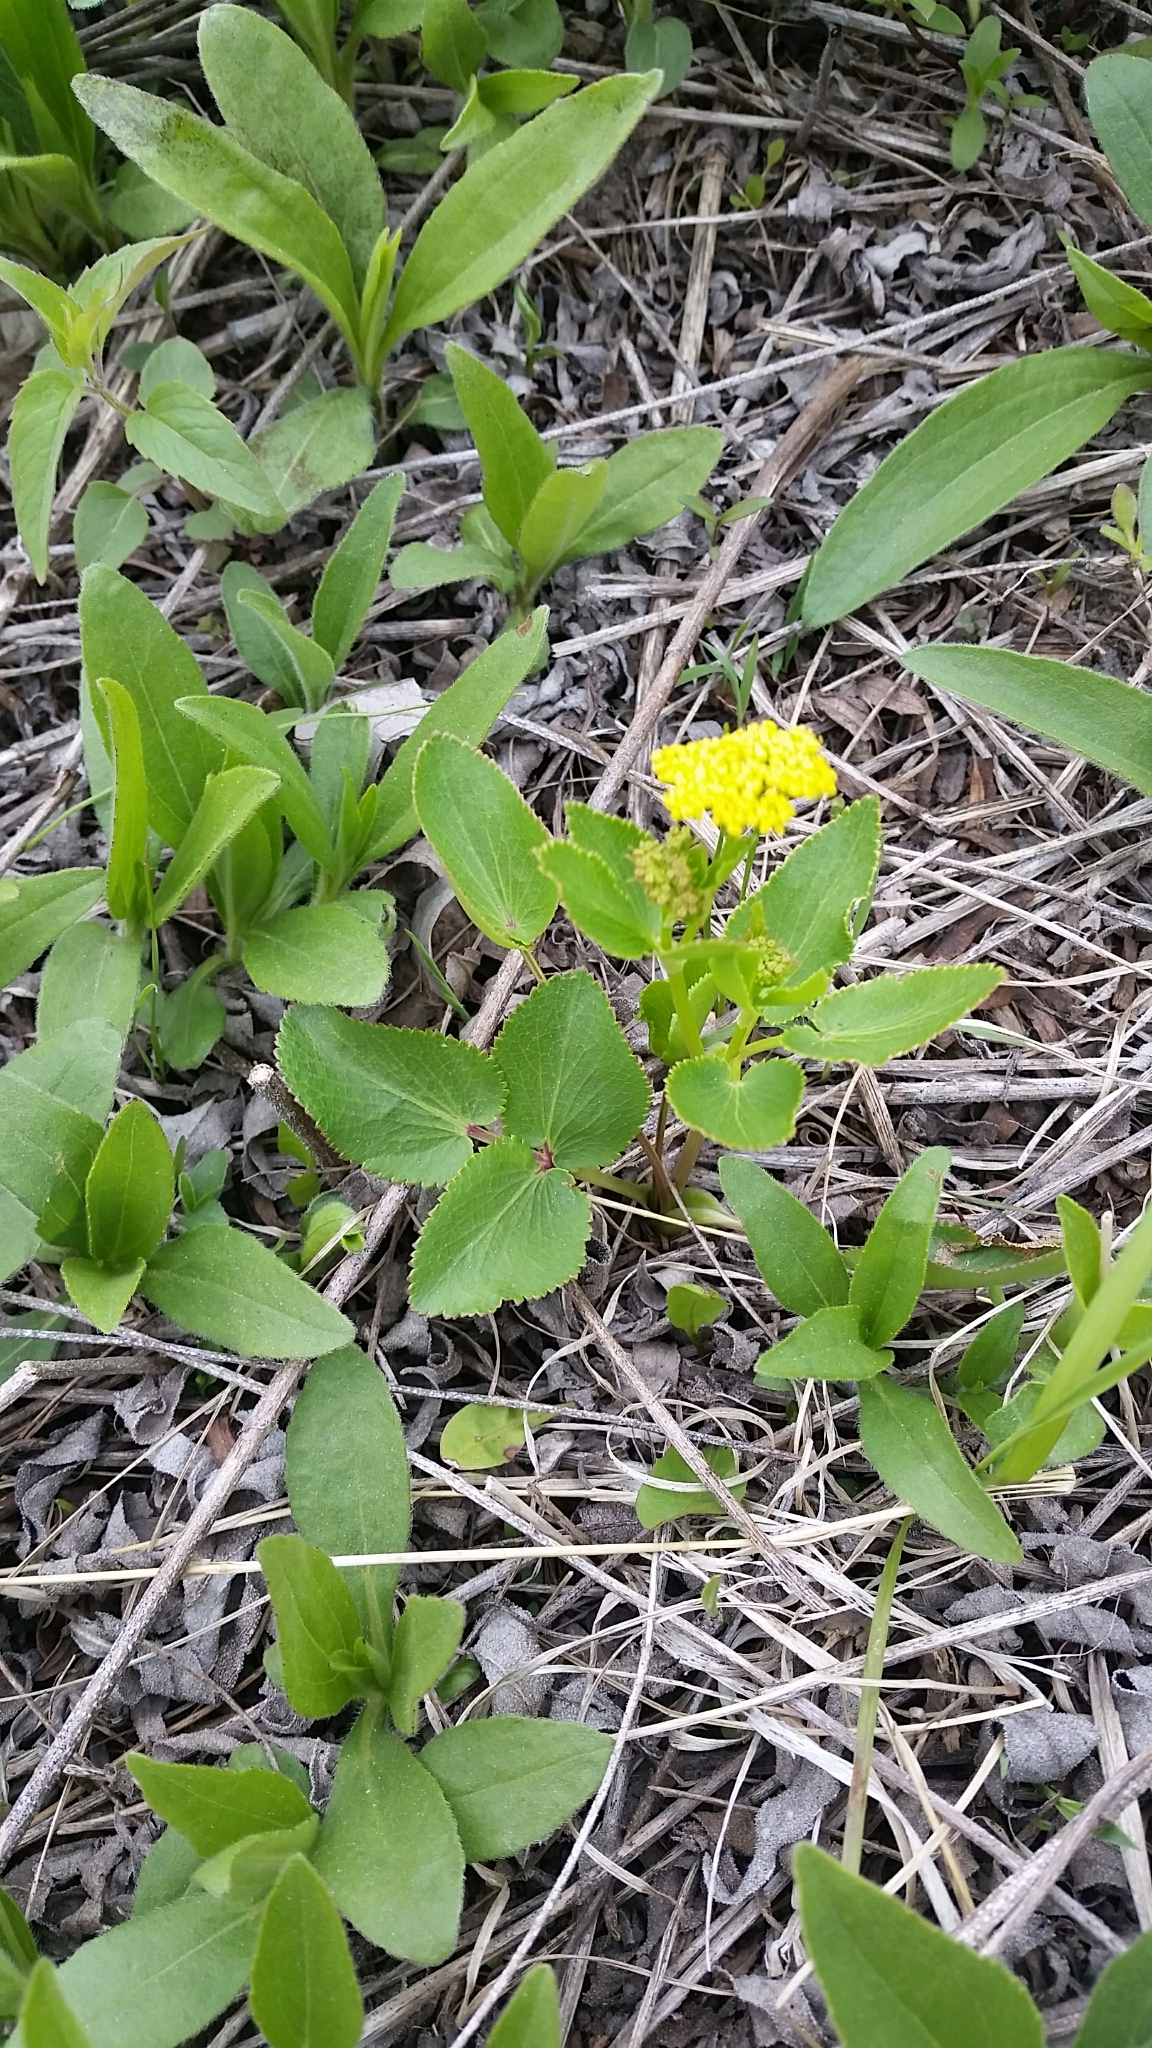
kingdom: Plantae
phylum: Tracheophyta
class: Magnoliopsida
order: Apiales
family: Apiaceae
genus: Zizia
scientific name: Zizia aptera
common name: Heart-leaved alexanders
